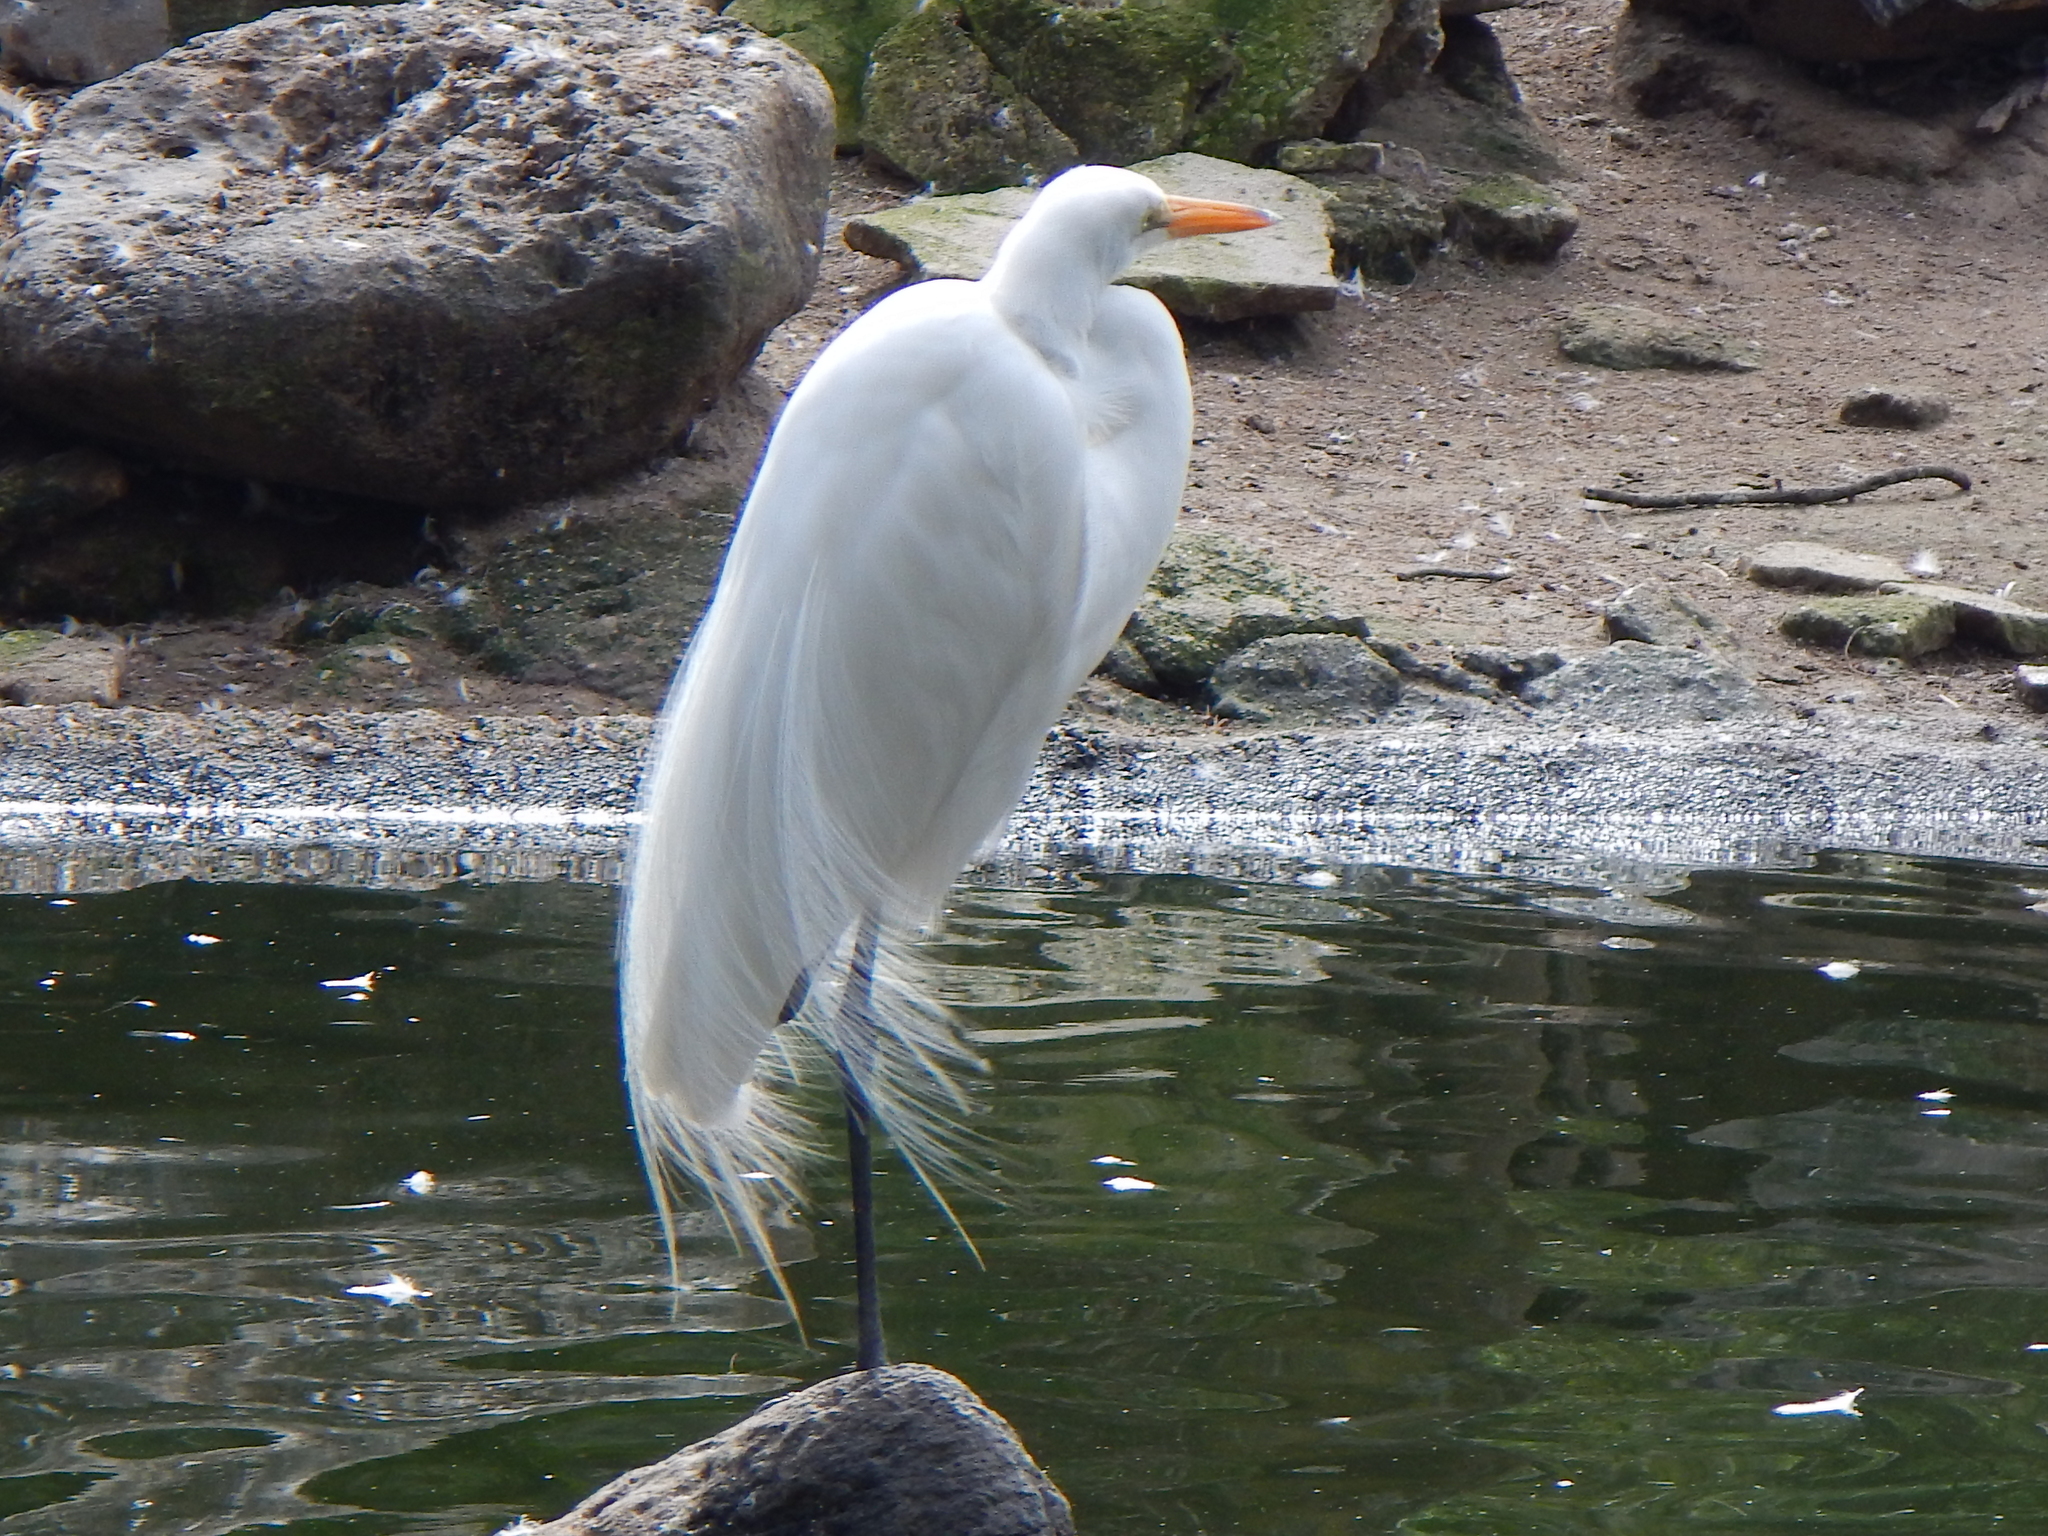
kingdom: Animalia
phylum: Chordata
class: Aves
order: Pelecaniformes
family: Ardeidae
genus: Ardea
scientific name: Ardea alba
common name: Great egret
